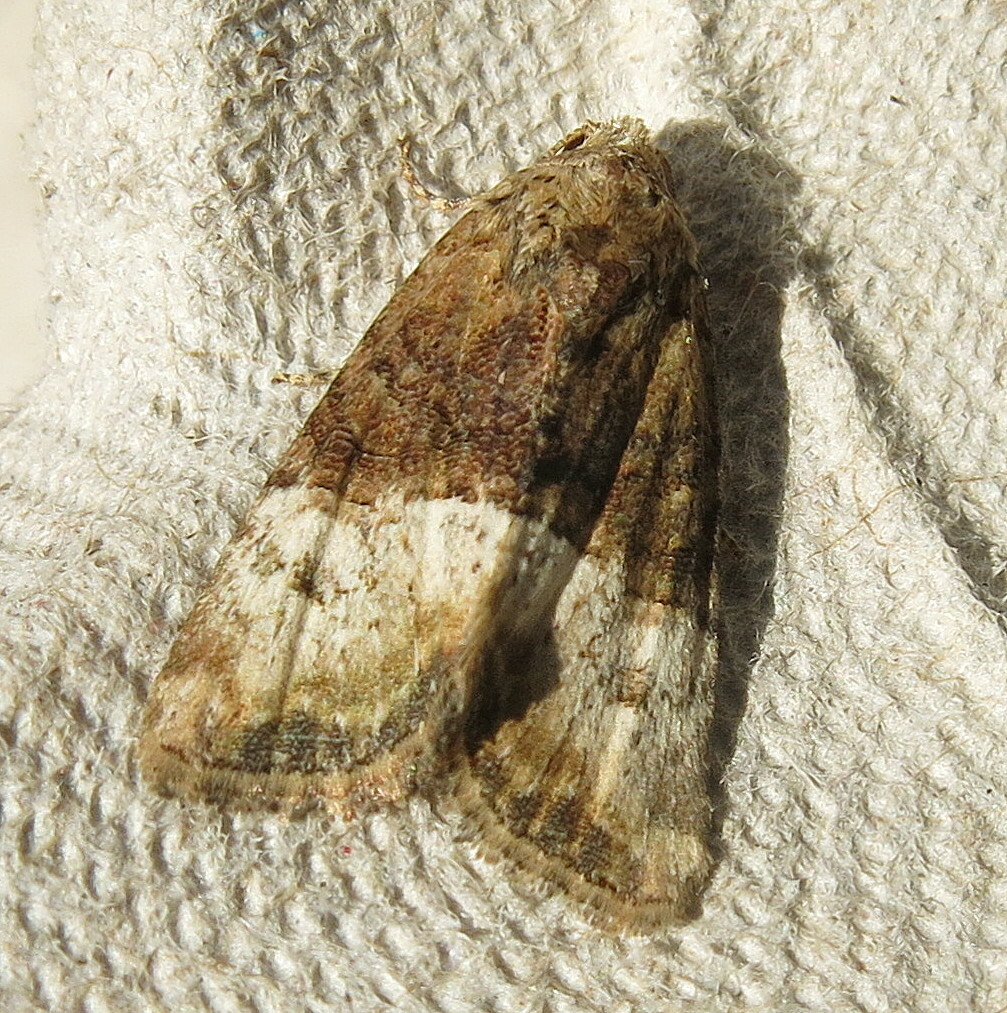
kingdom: Animalia
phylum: Arthropoda
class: Insecta
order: Lepidoptera
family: Noctuidae
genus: Mesoligia
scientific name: Mesoligia furuncula
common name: Cloaked minor
